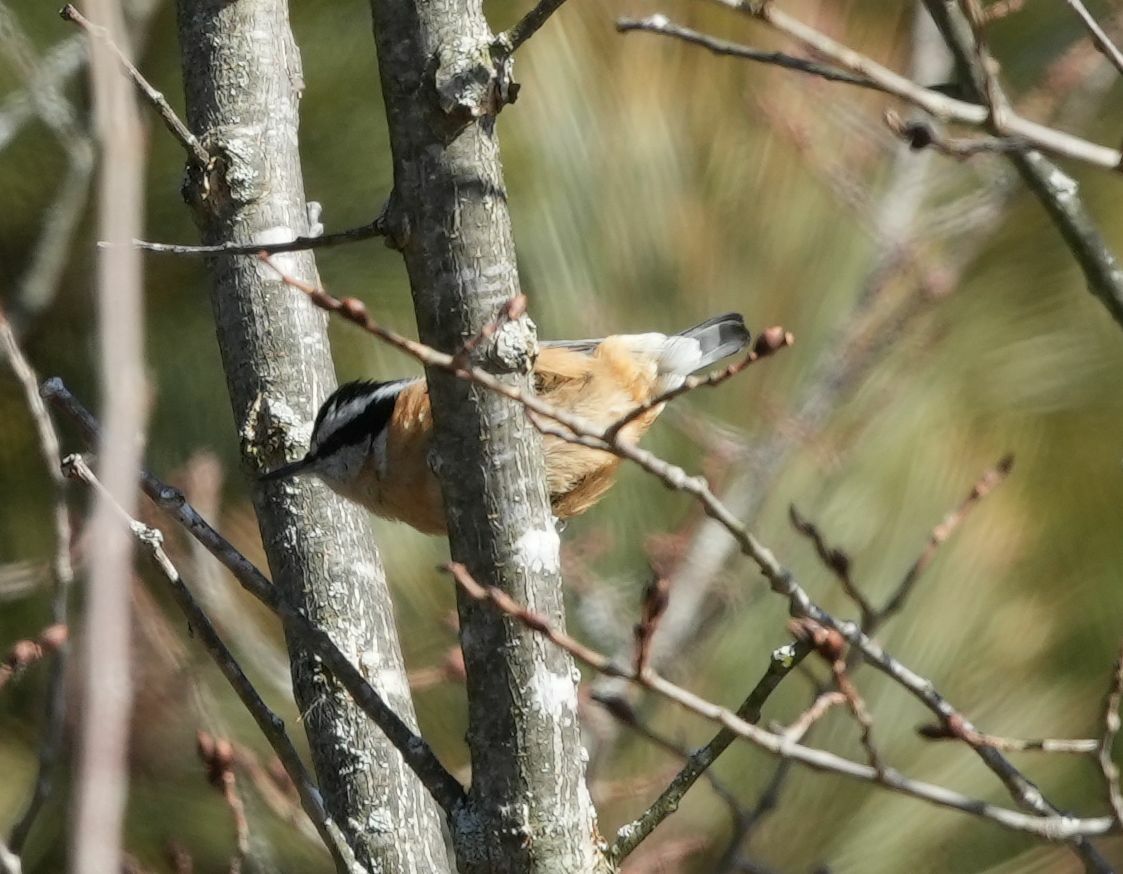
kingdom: Animalia
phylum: Chordata
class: Aves
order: Passeriformes
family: Sittidae
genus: Sitta
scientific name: Sitta canadensis
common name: Red-breasted nuthatch
